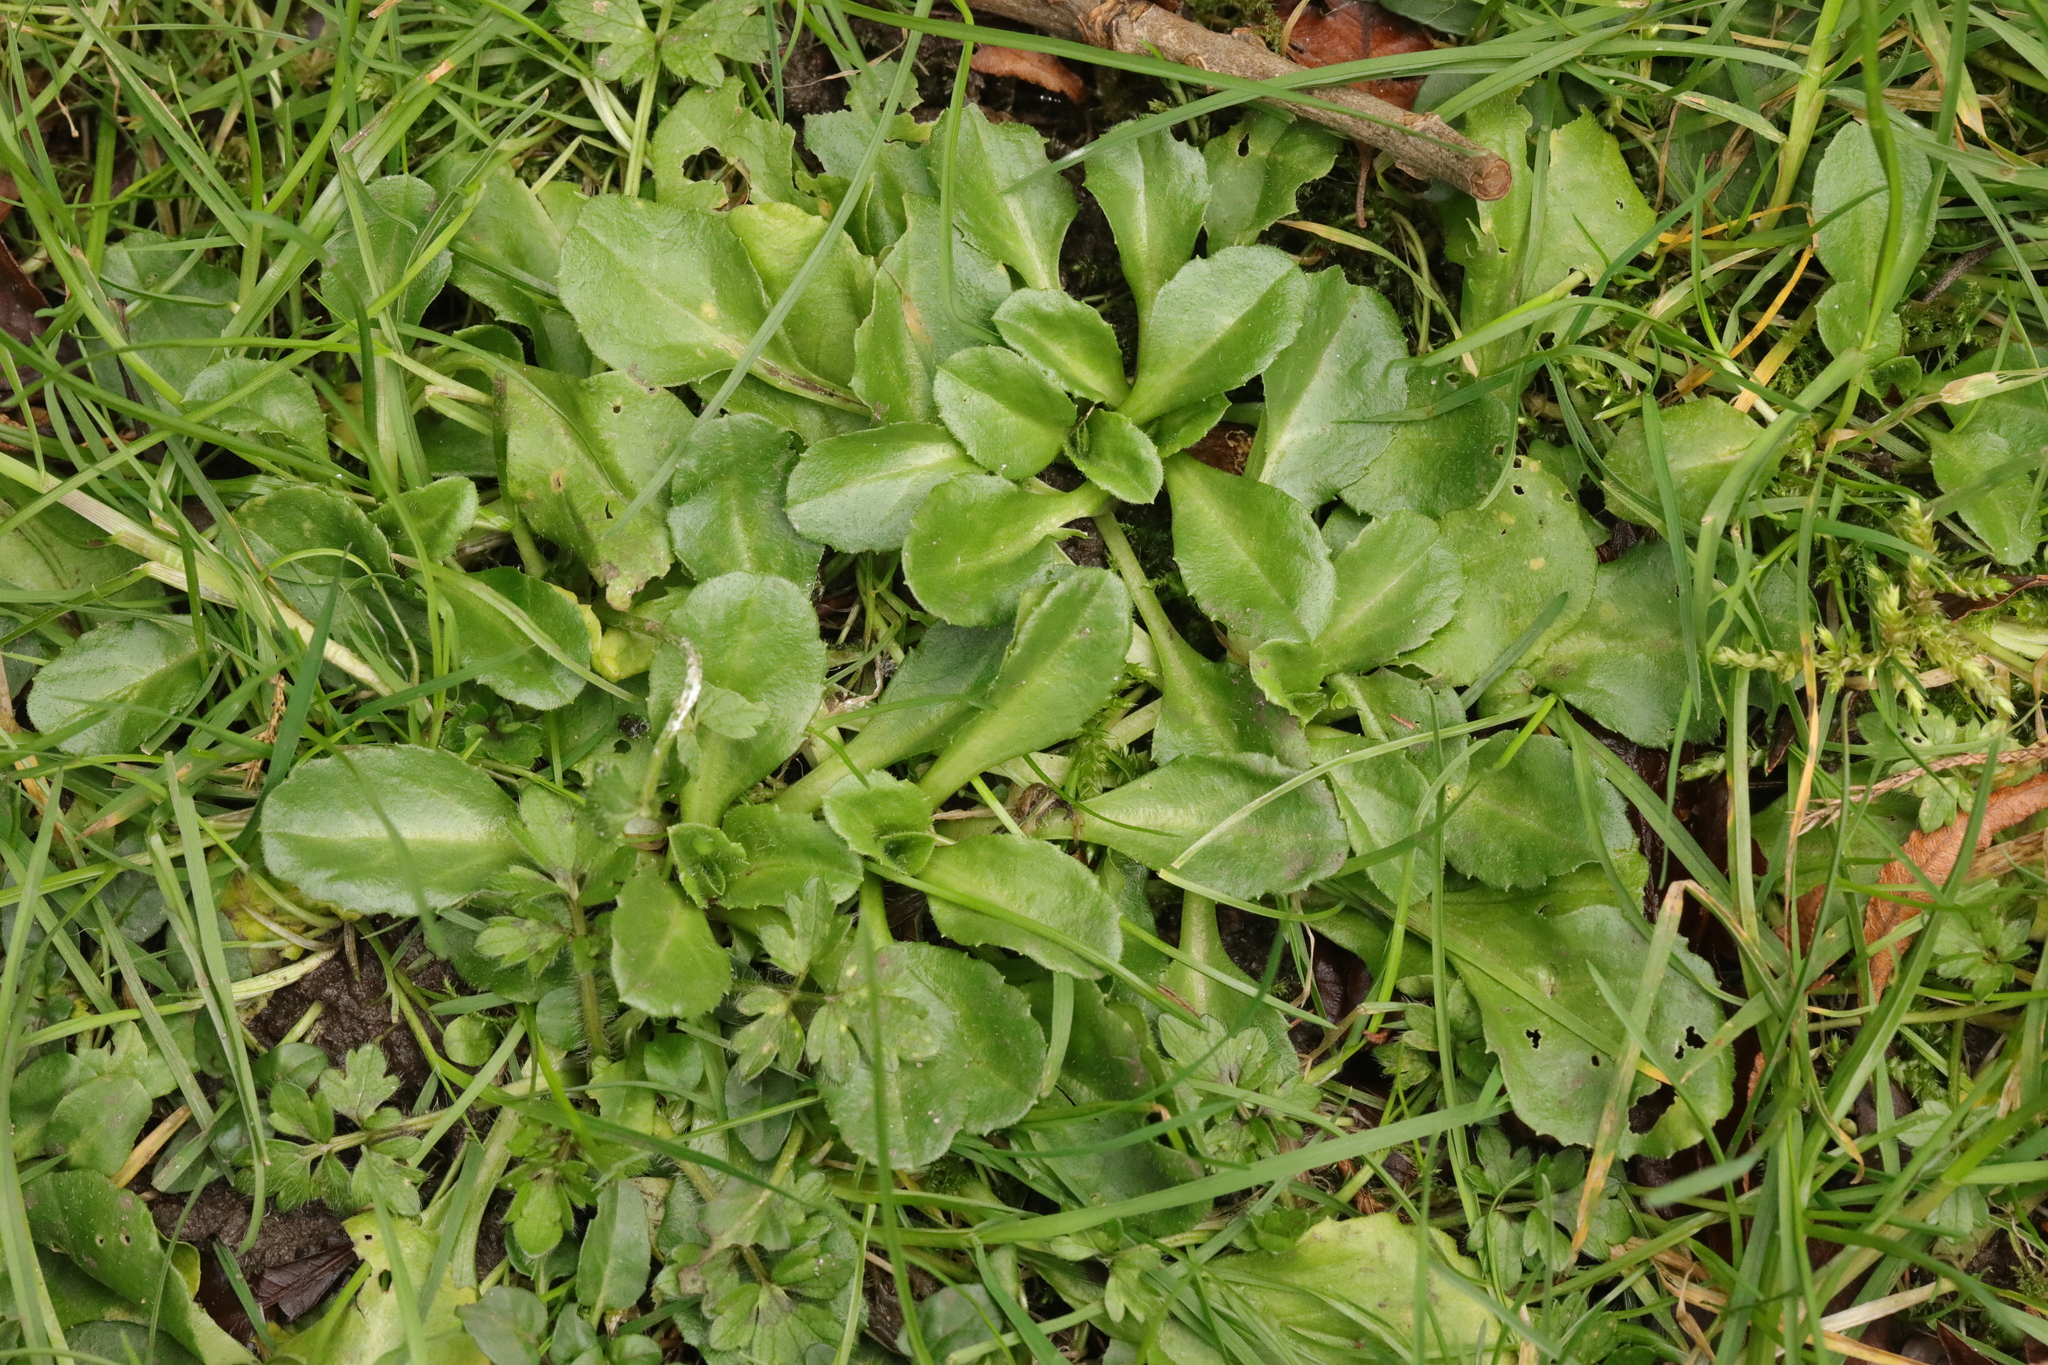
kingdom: Plantae
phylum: Tracheophyta
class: Magnoliopsida
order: Asterales
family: Asteraceae
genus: Bellis
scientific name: Bellis perennis
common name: Lawndaisy
